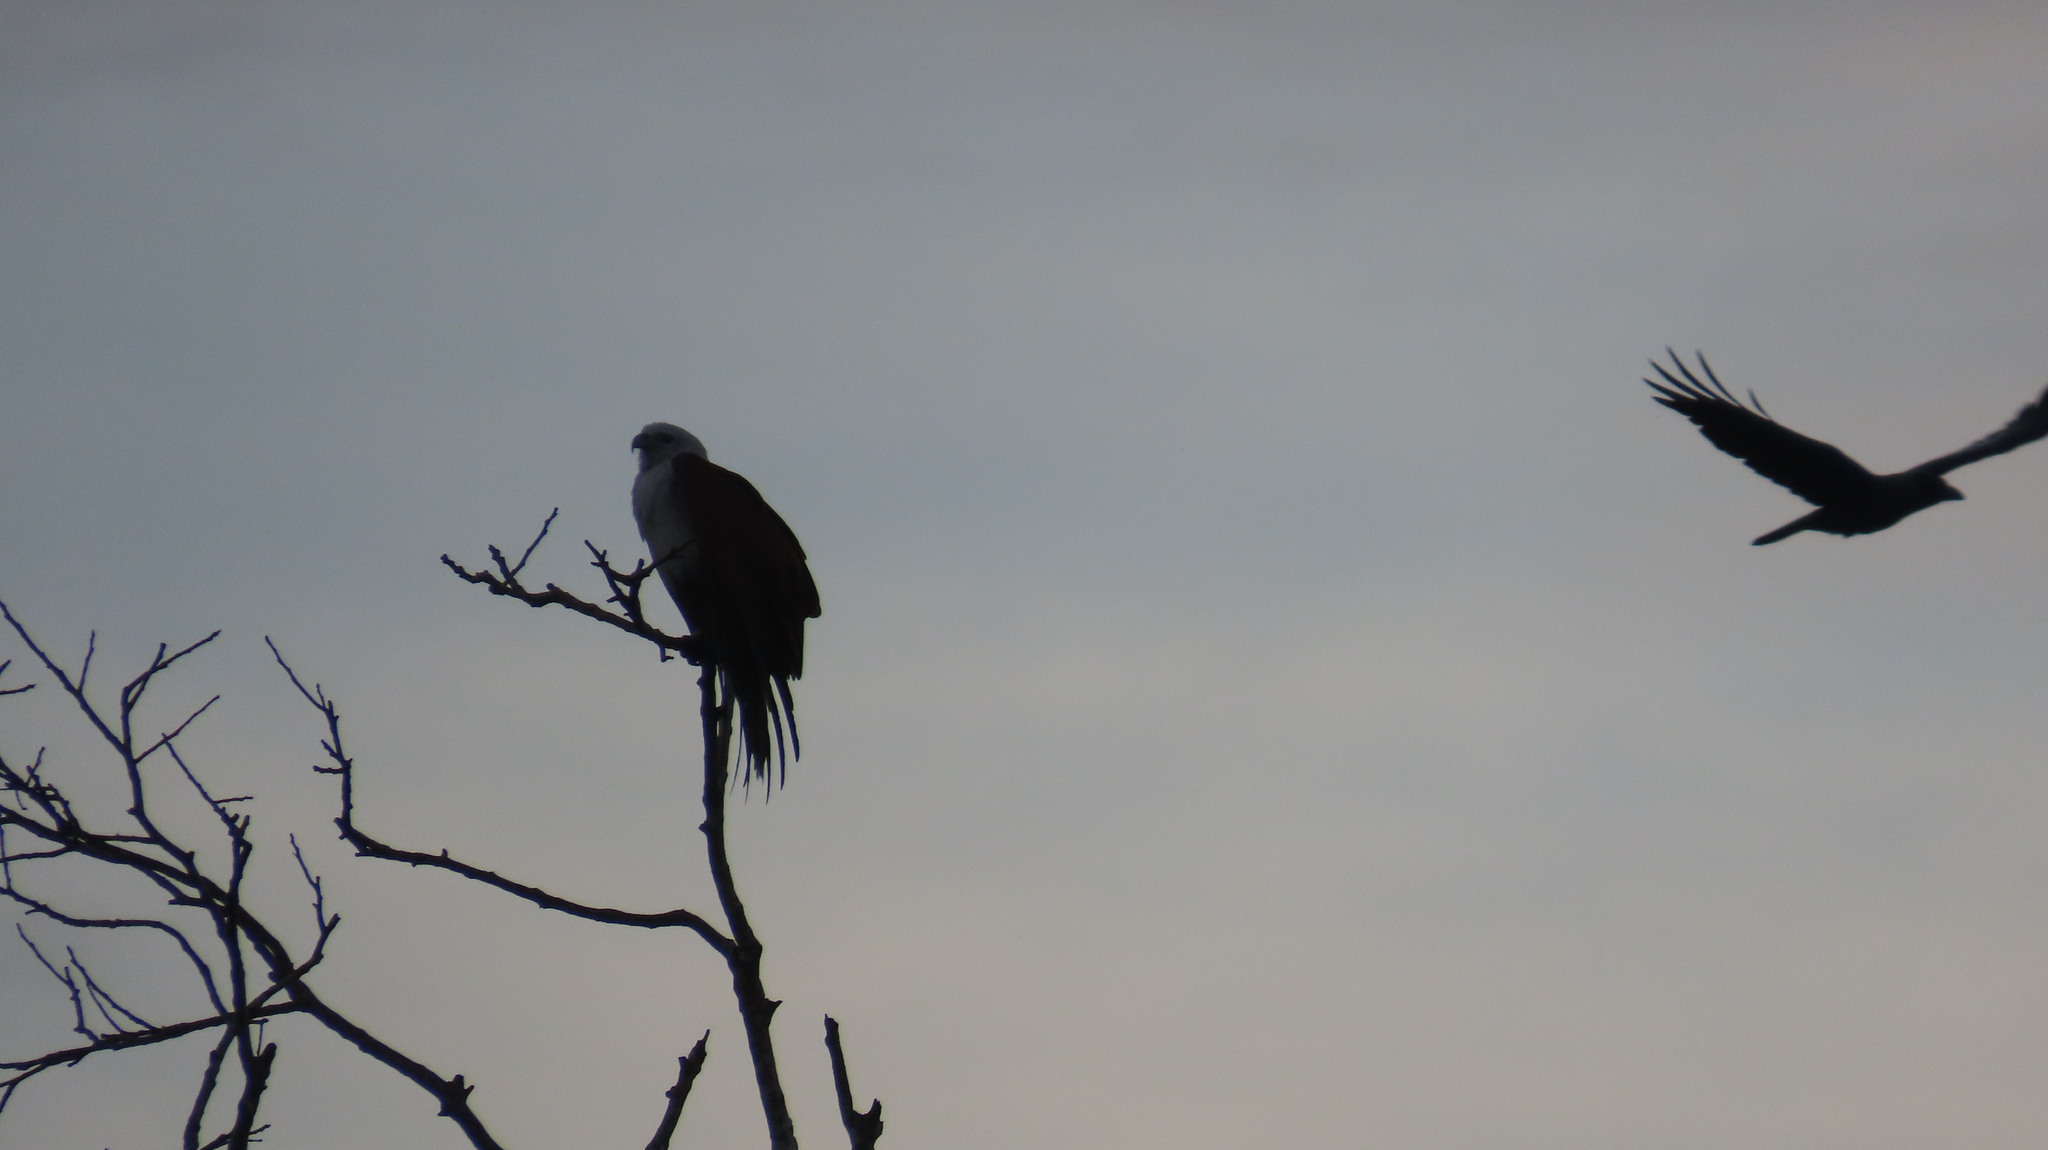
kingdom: Animalia
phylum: Chordata
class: Aves
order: Accipitriformes
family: Accipitridae
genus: Haliastur
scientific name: Haliastur indus
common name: Brahminy kite
